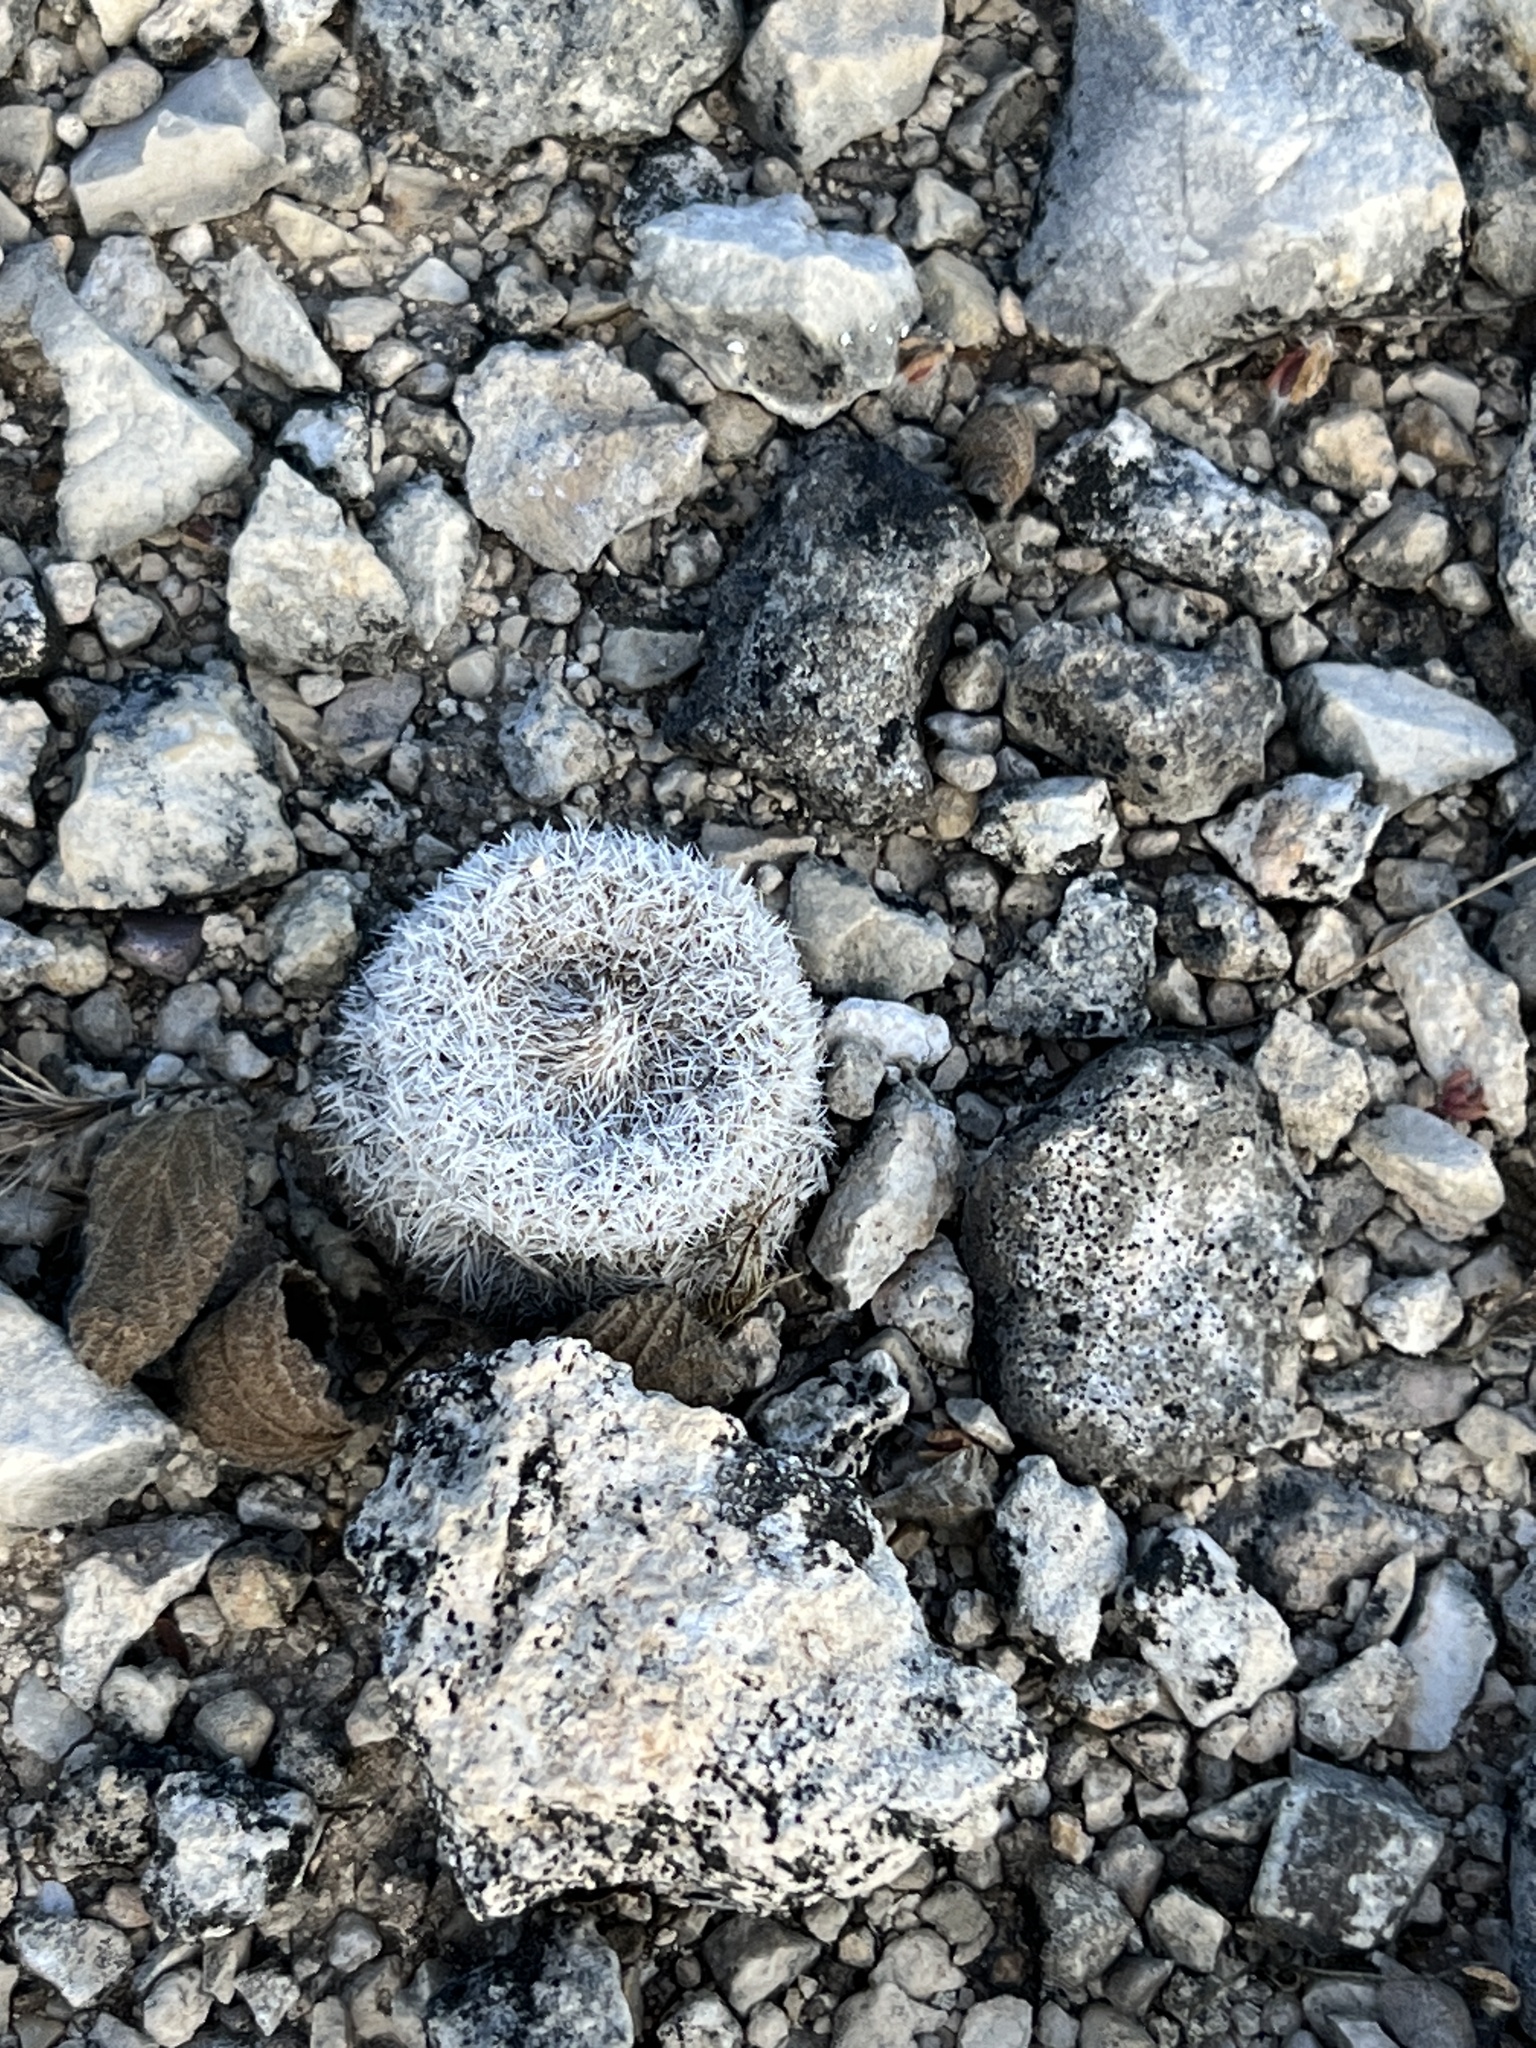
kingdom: Plantae
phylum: Tracheophyta
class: Magnoliopsida
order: Caryophyllales
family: Cactaceae
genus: Epithelantha
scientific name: Epithelantha micromeris
